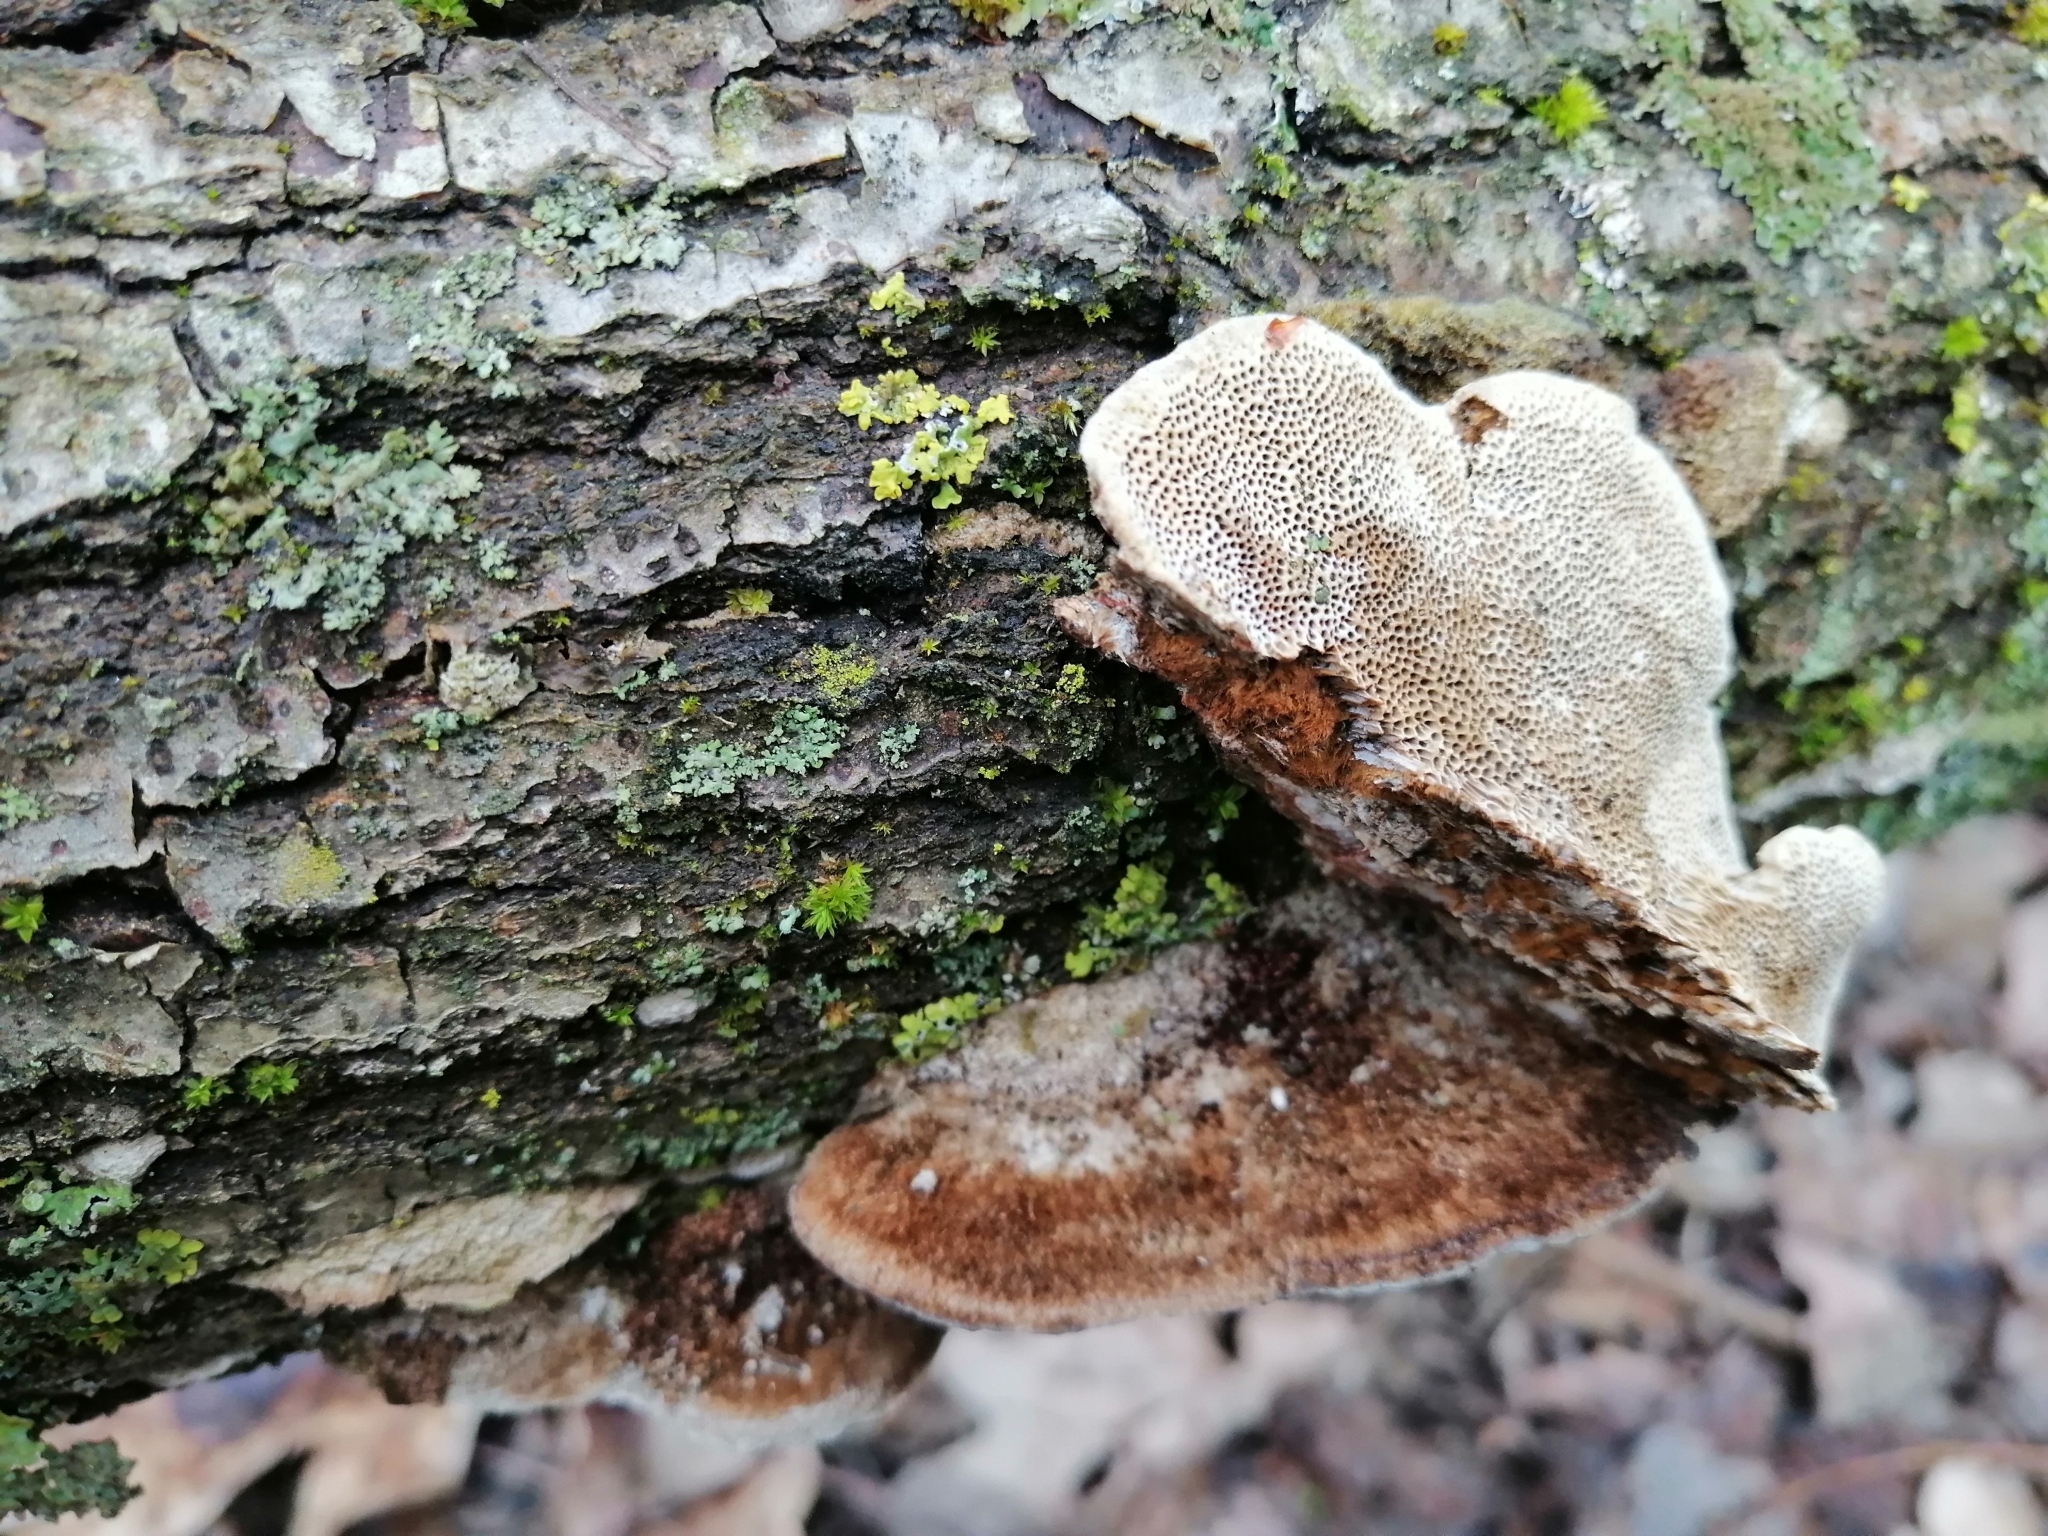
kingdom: Fungi
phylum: Basidiomycota
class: Agaricomycetes
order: Polyporales
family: Polyporaceae
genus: Trametes
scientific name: Trametes trogii
